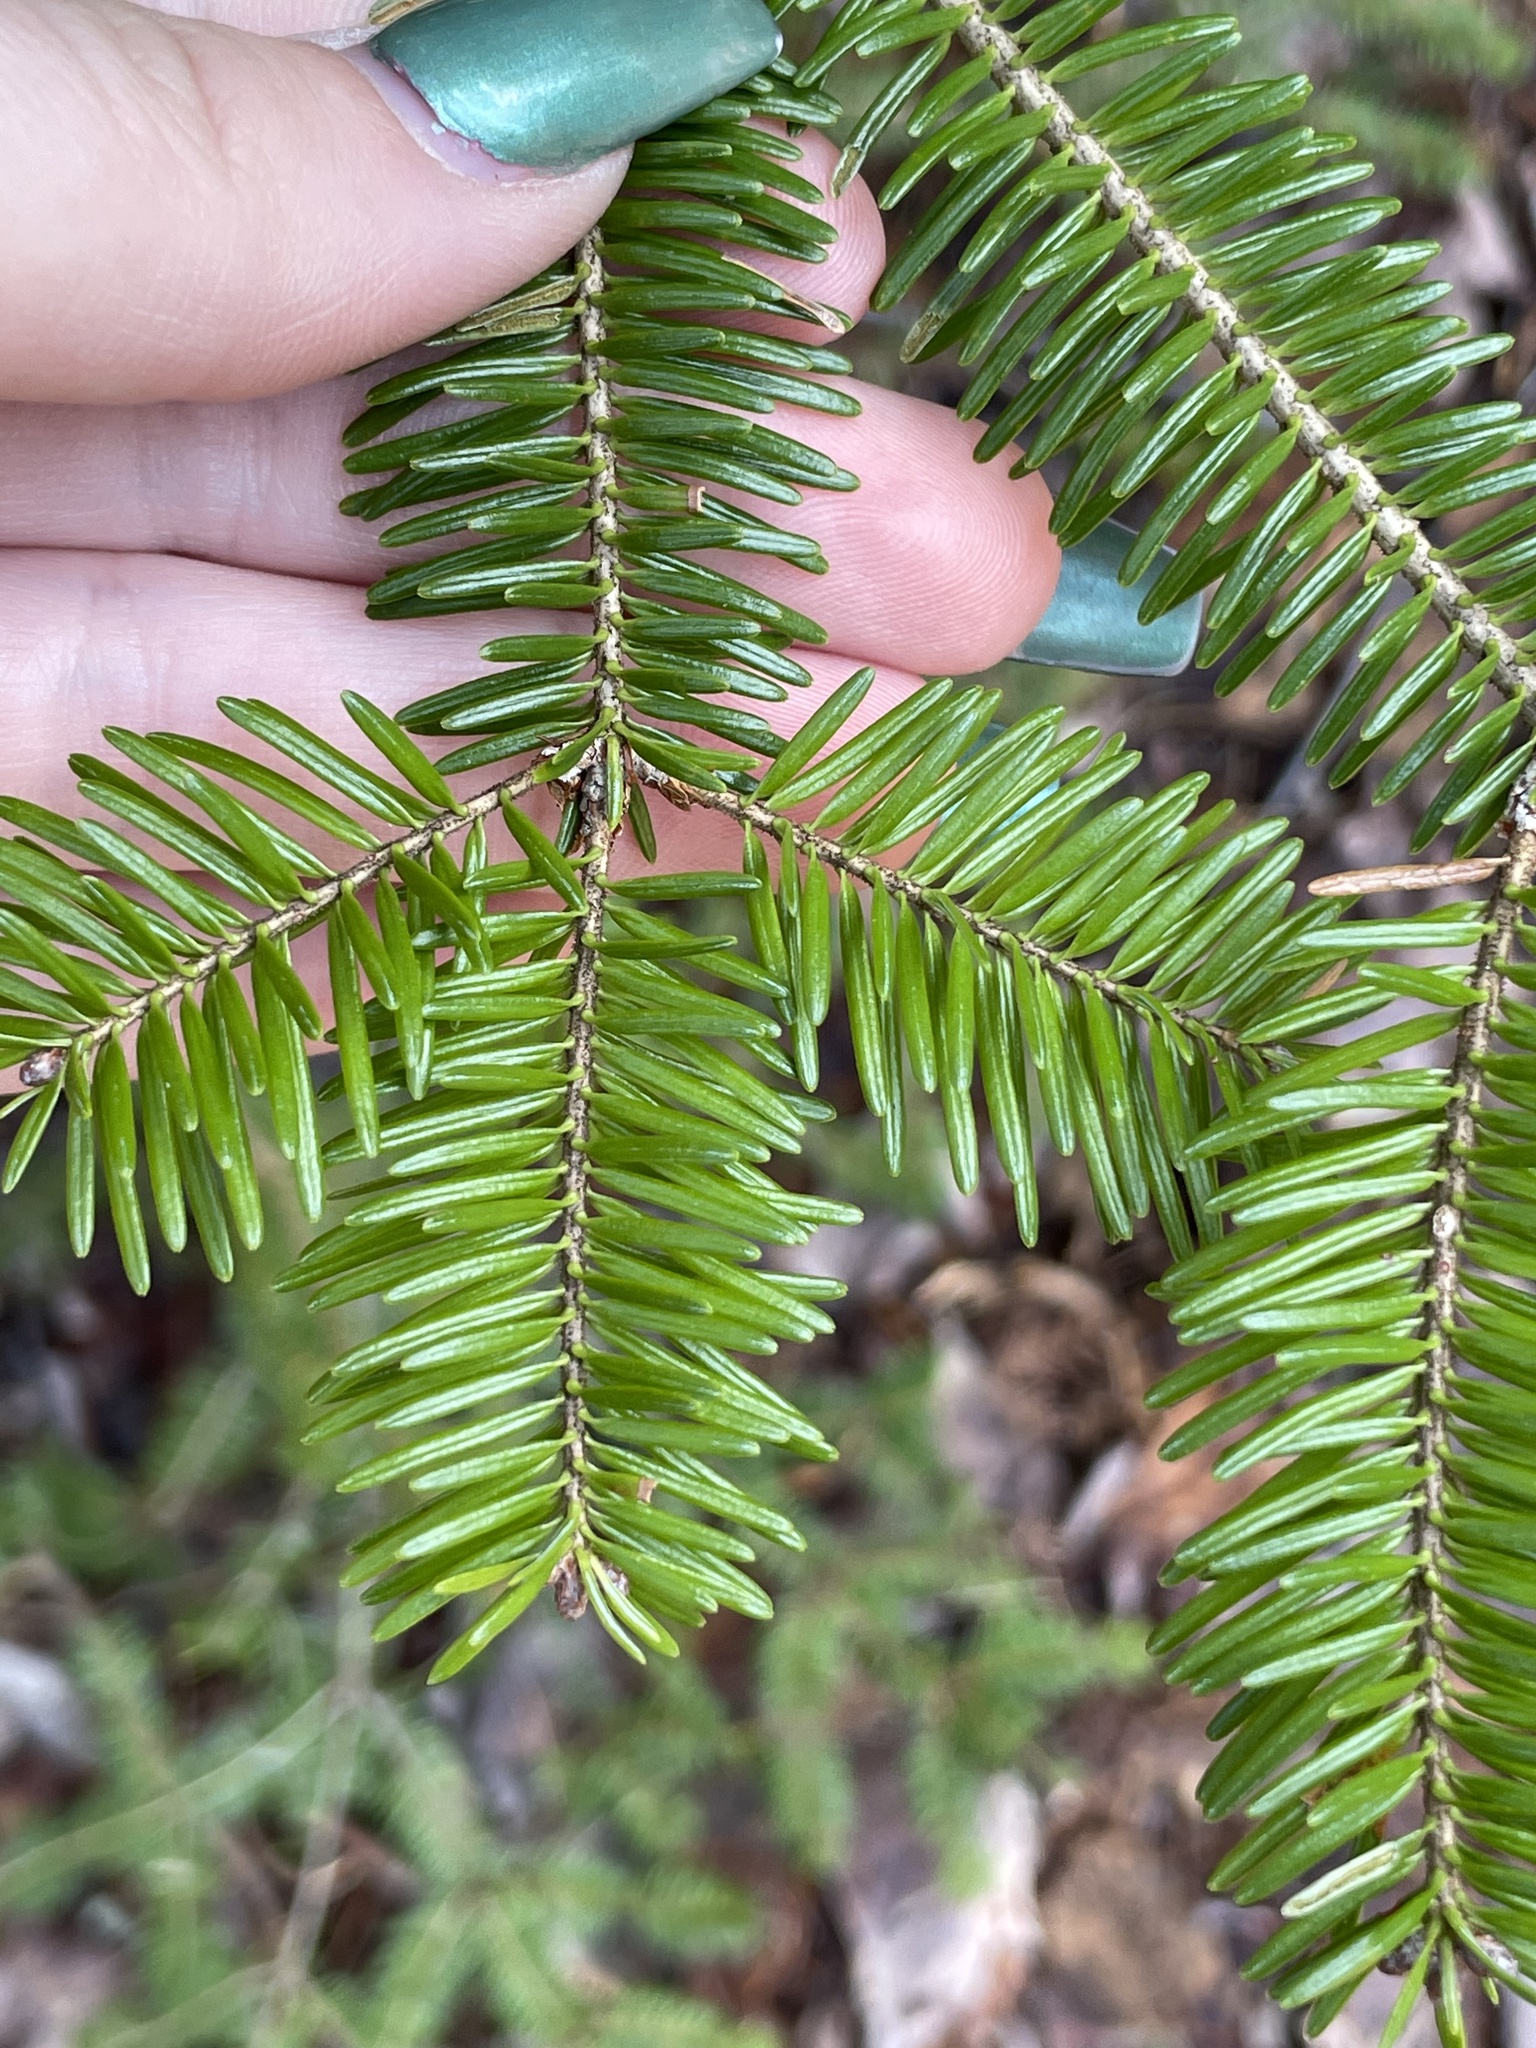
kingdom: Plantae
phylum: Tracheophyta
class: Pinopsida
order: Pinales
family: Pinaceae
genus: Abies
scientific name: Abies balsamea
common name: Balsam fir
